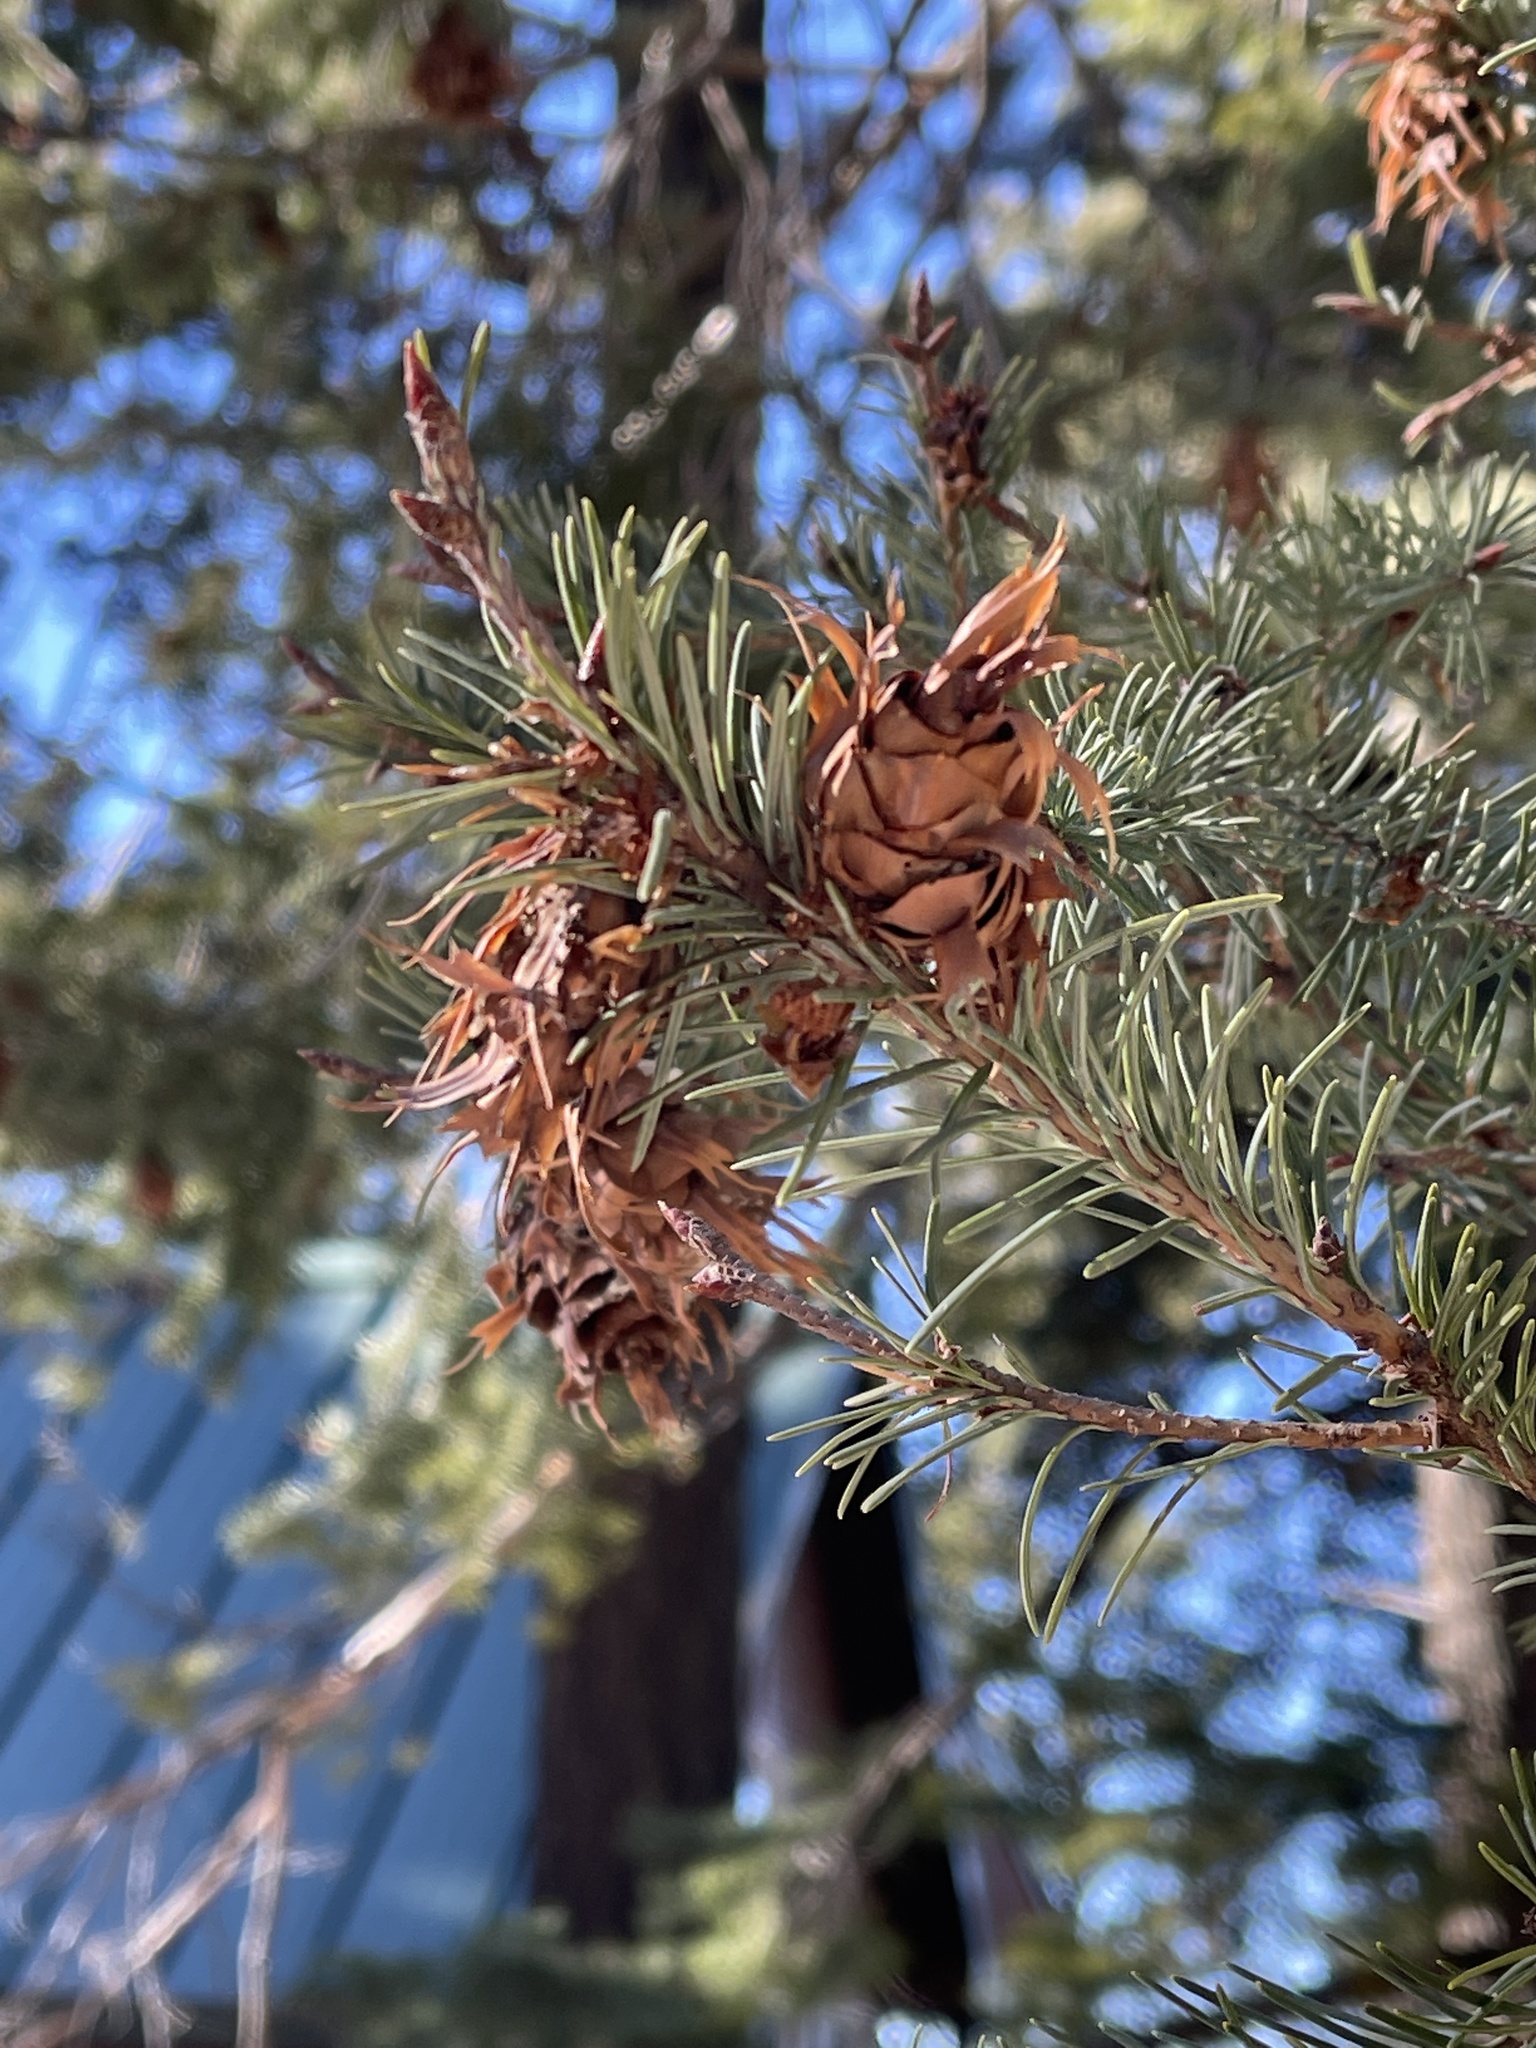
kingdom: Plantae
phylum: Tracheophyta
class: Pinopsida
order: Pinales
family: Pinaceae
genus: Pseudotsuga
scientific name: Pseudotsuga menziesii
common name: Douglas fir
